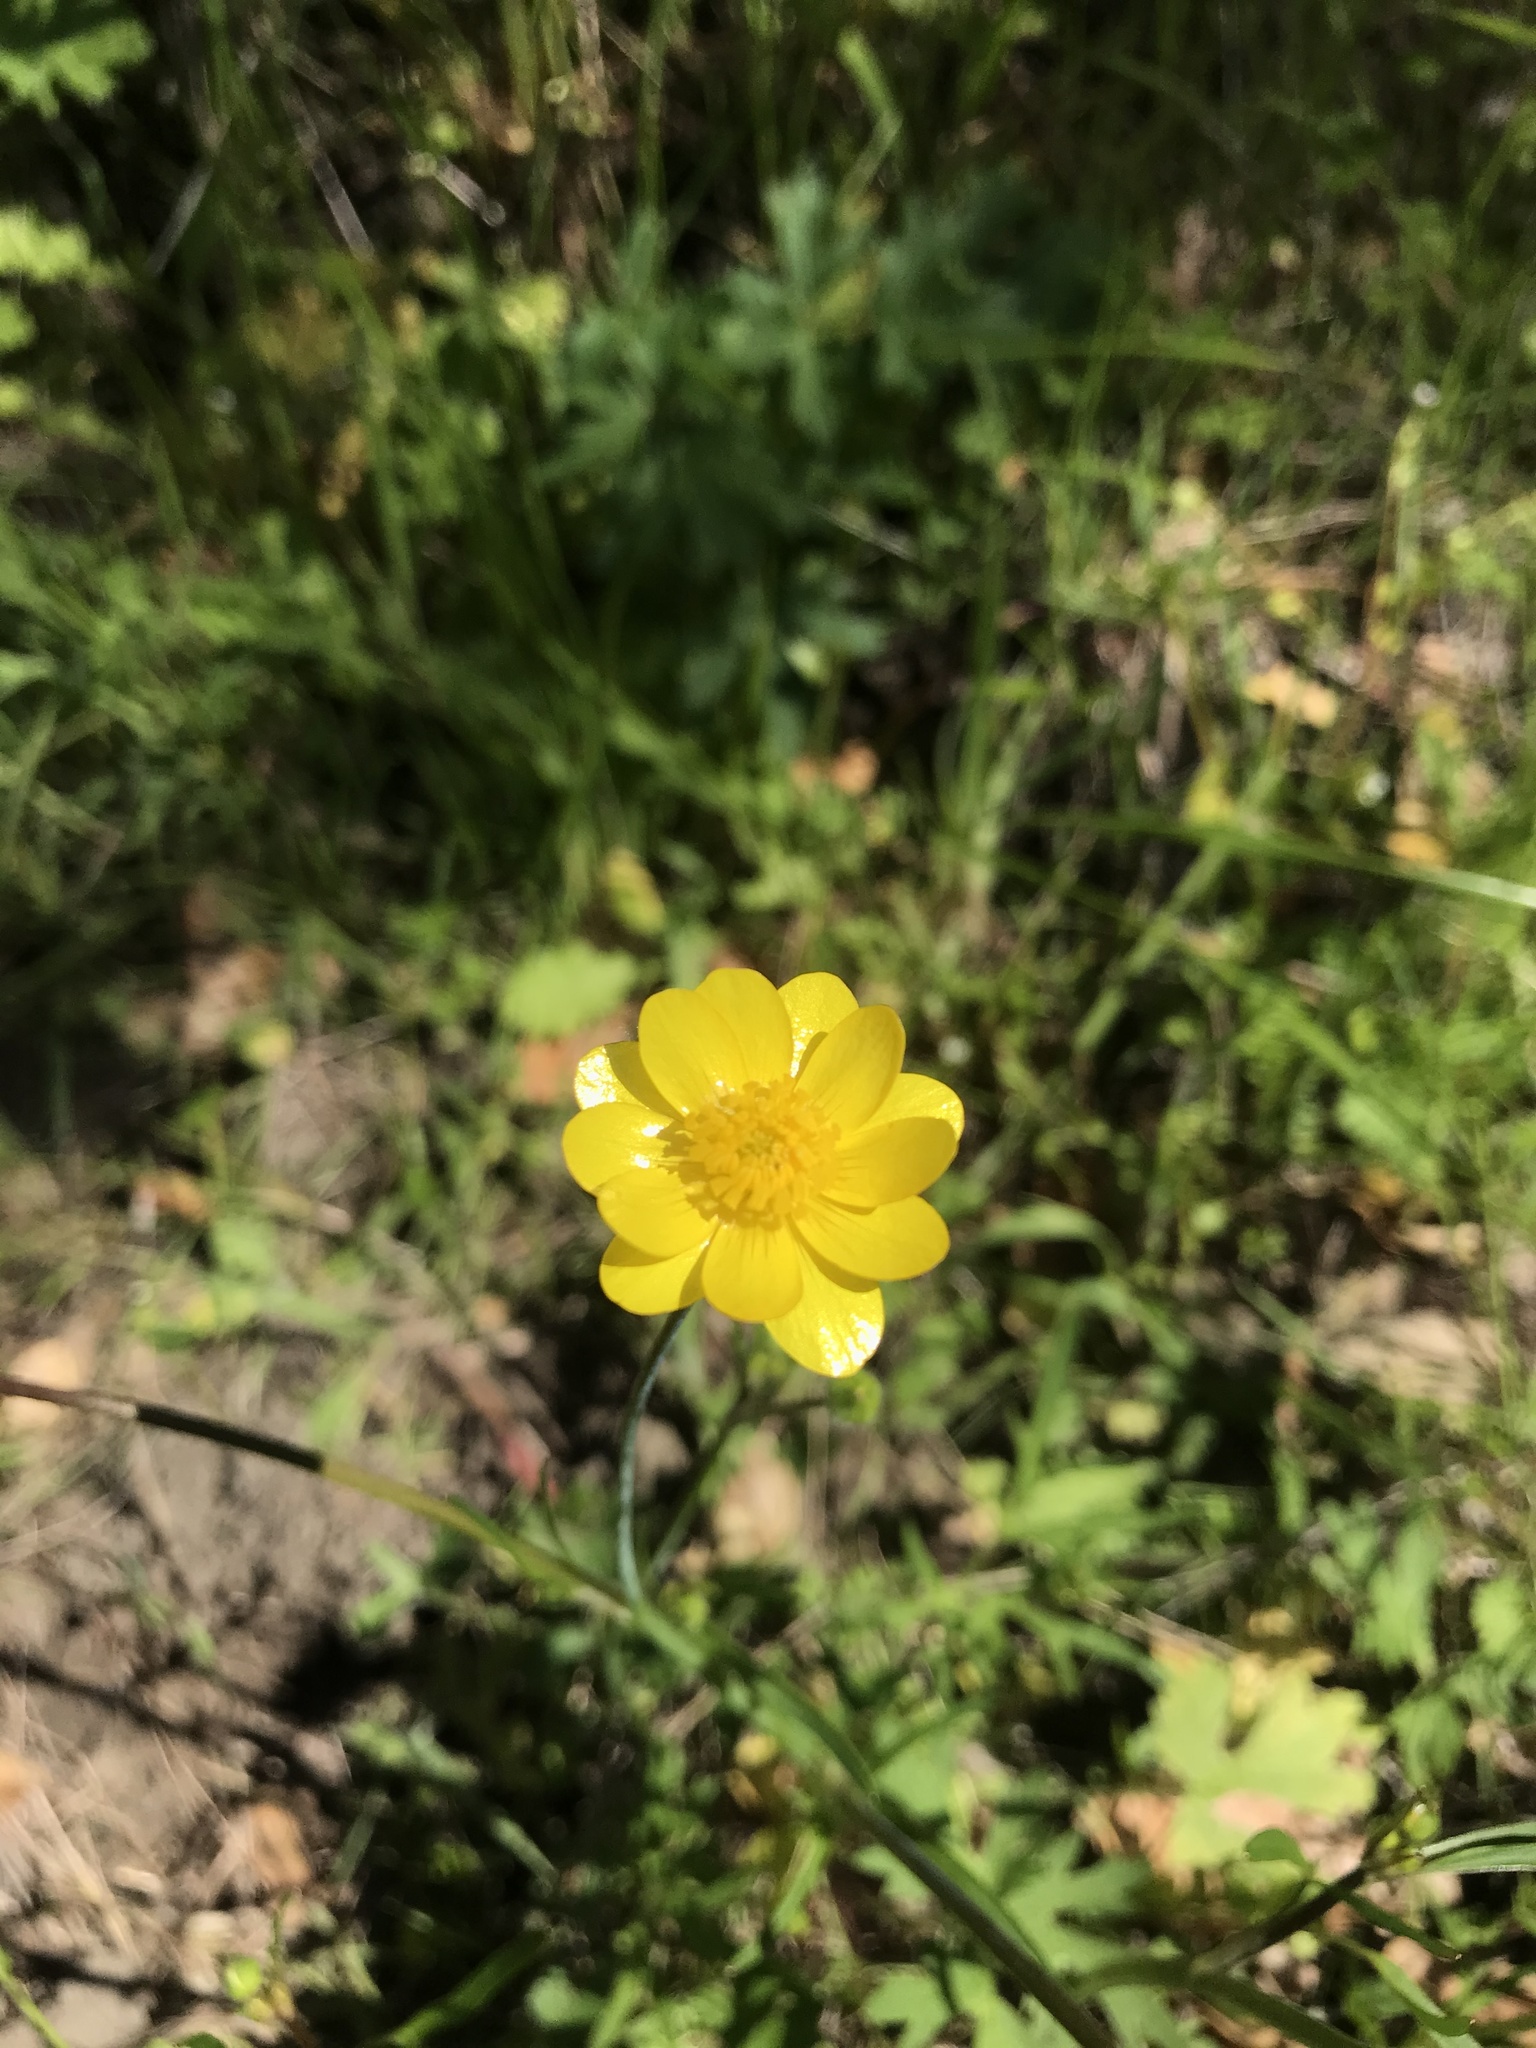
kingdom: Plantae
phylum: Tracheophyta
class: Magnoliopsida
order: Ranunculales
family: Ranunculaceae
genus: Ranunculus
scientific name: Ranunculus californicus
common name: California buttercup
